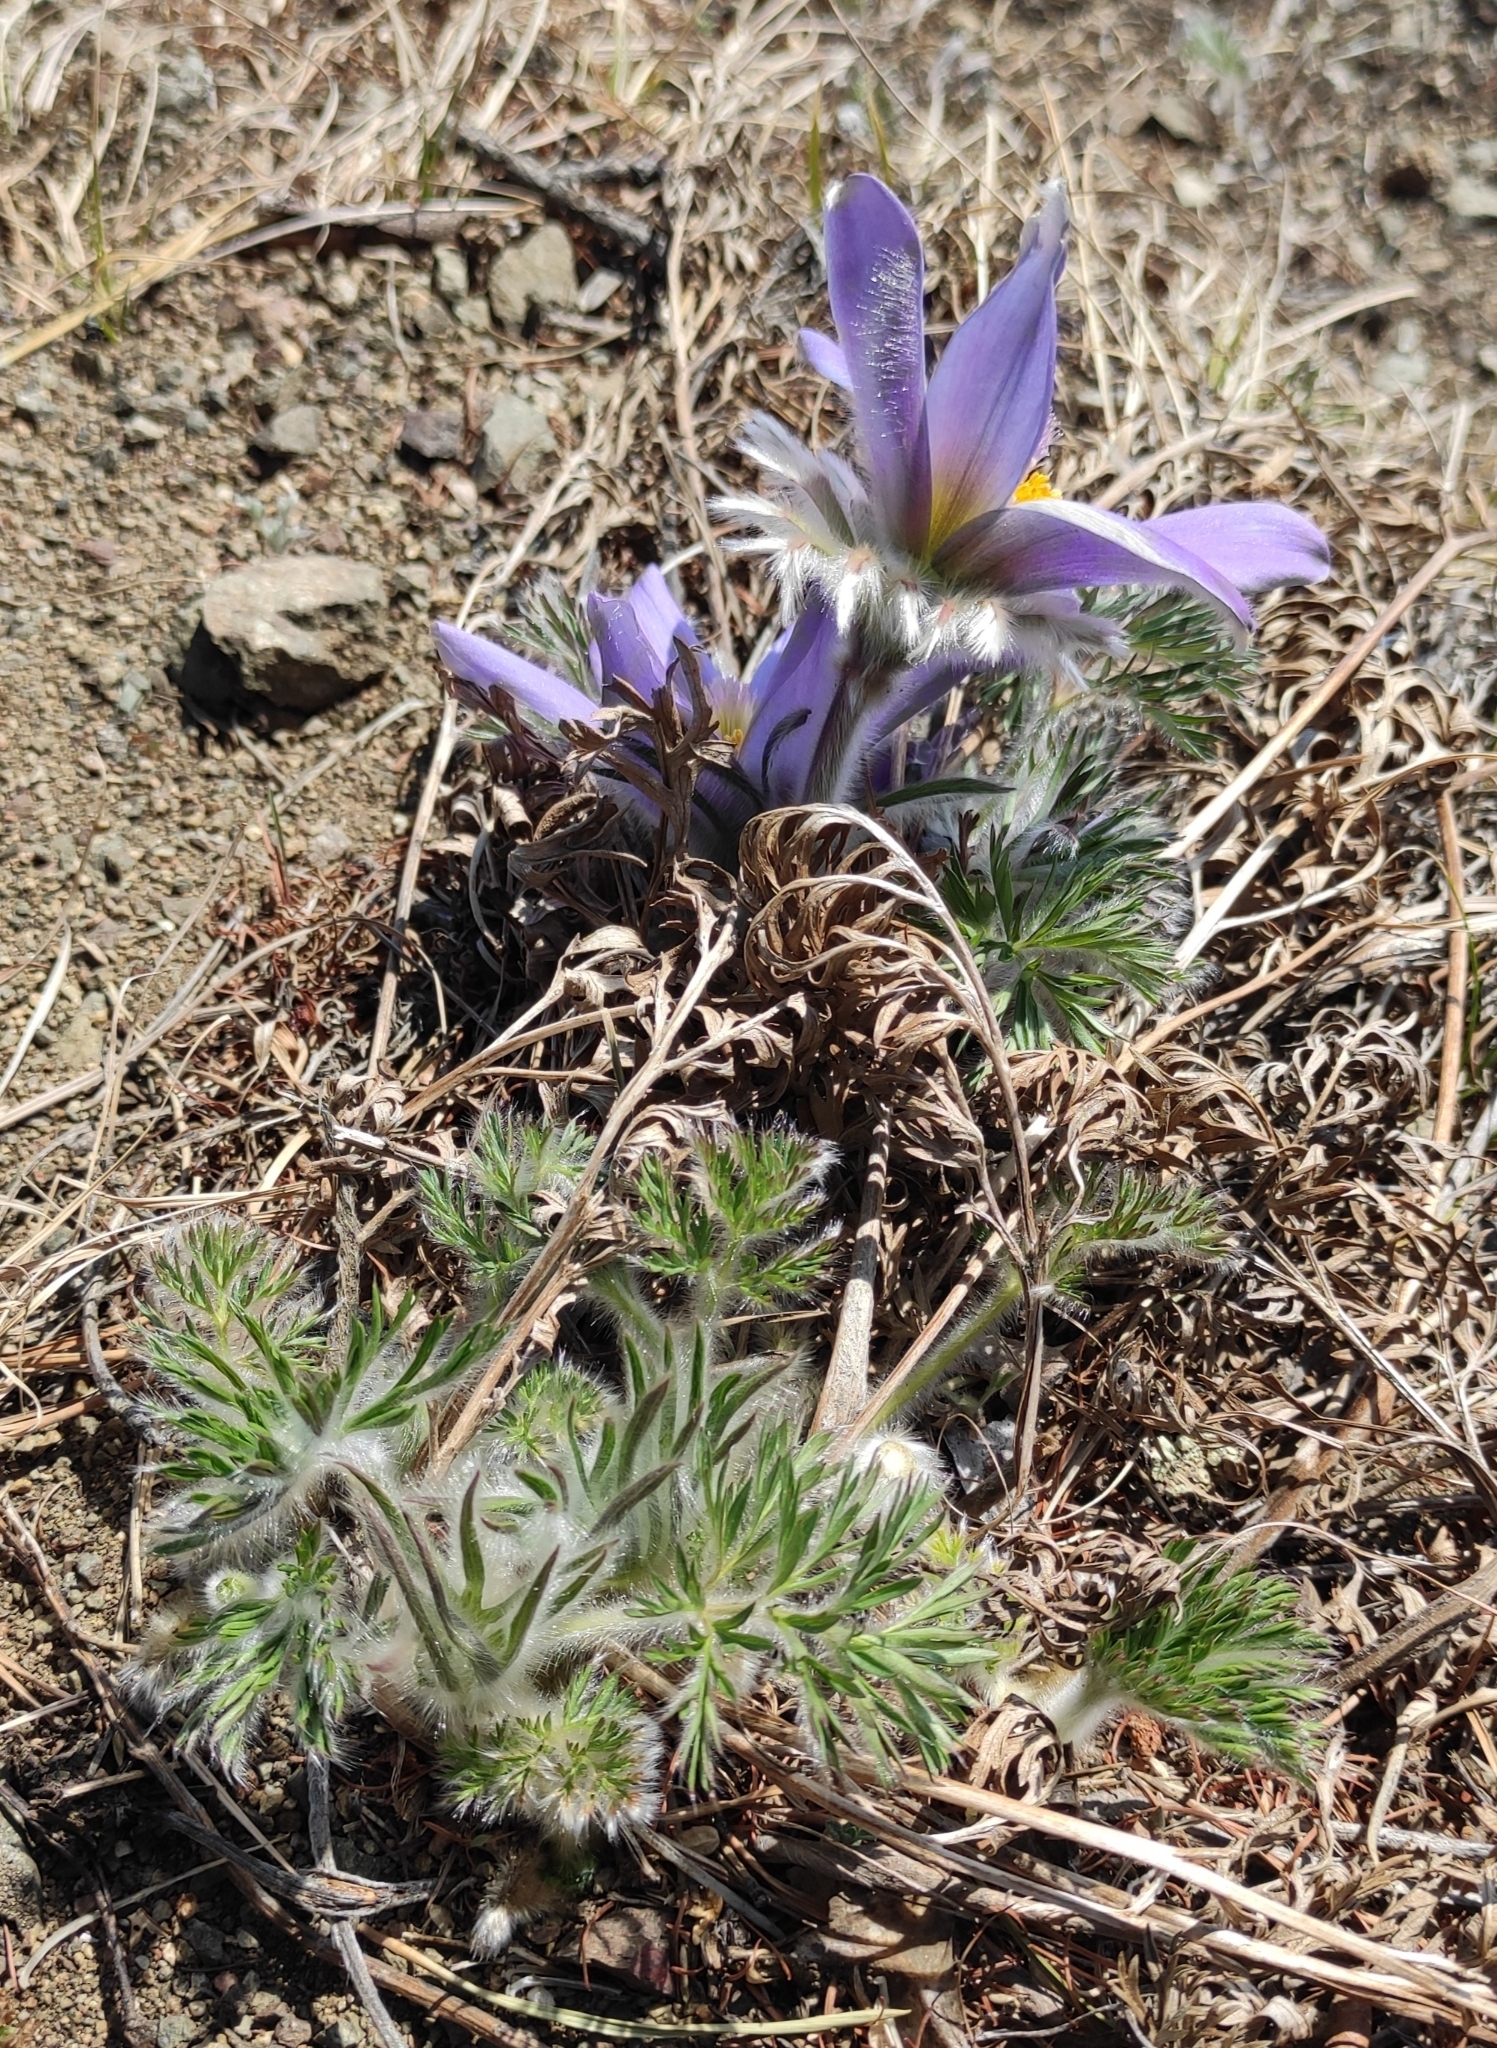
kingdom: Plantae
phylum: Tracheophyta
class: Magnoliopsida
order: Ranunculales
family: Ranunculaceae
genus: Pulsatilla
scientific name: Pulsatilla turczaninovii
